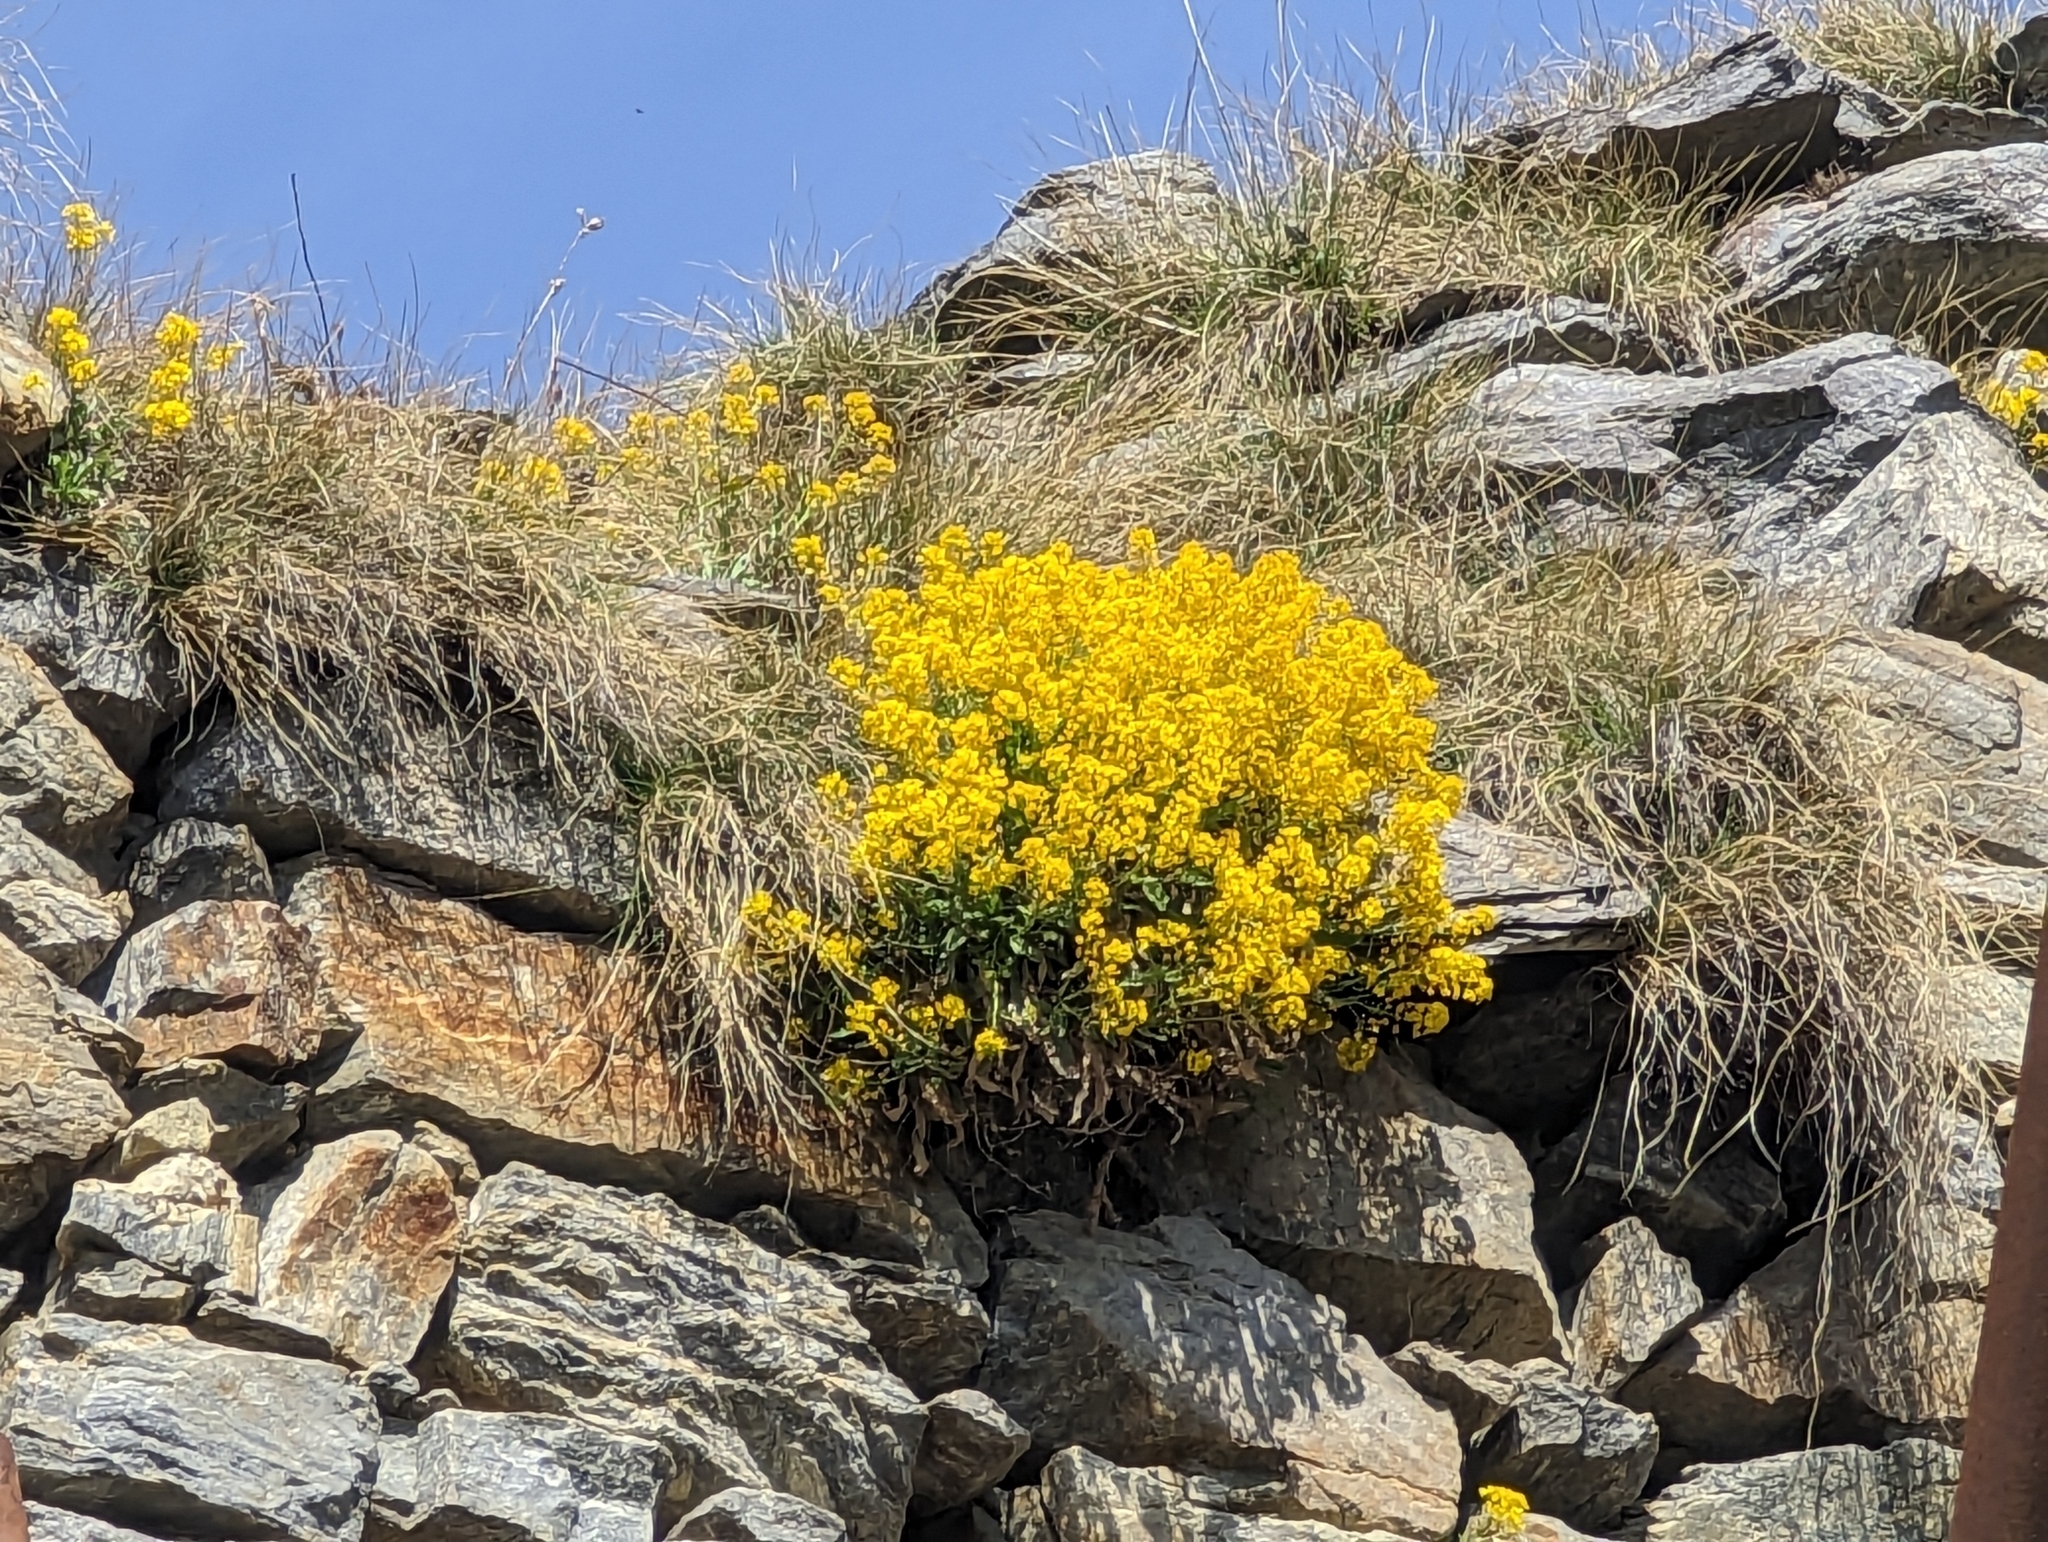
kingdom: Plantae
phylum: Tracheophyta
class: Magnoliopsida
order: Brassicales
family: Brassicaceae
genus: Aurinia
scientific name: Aurinia saxatilis
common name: Golden-tuft alyssum
